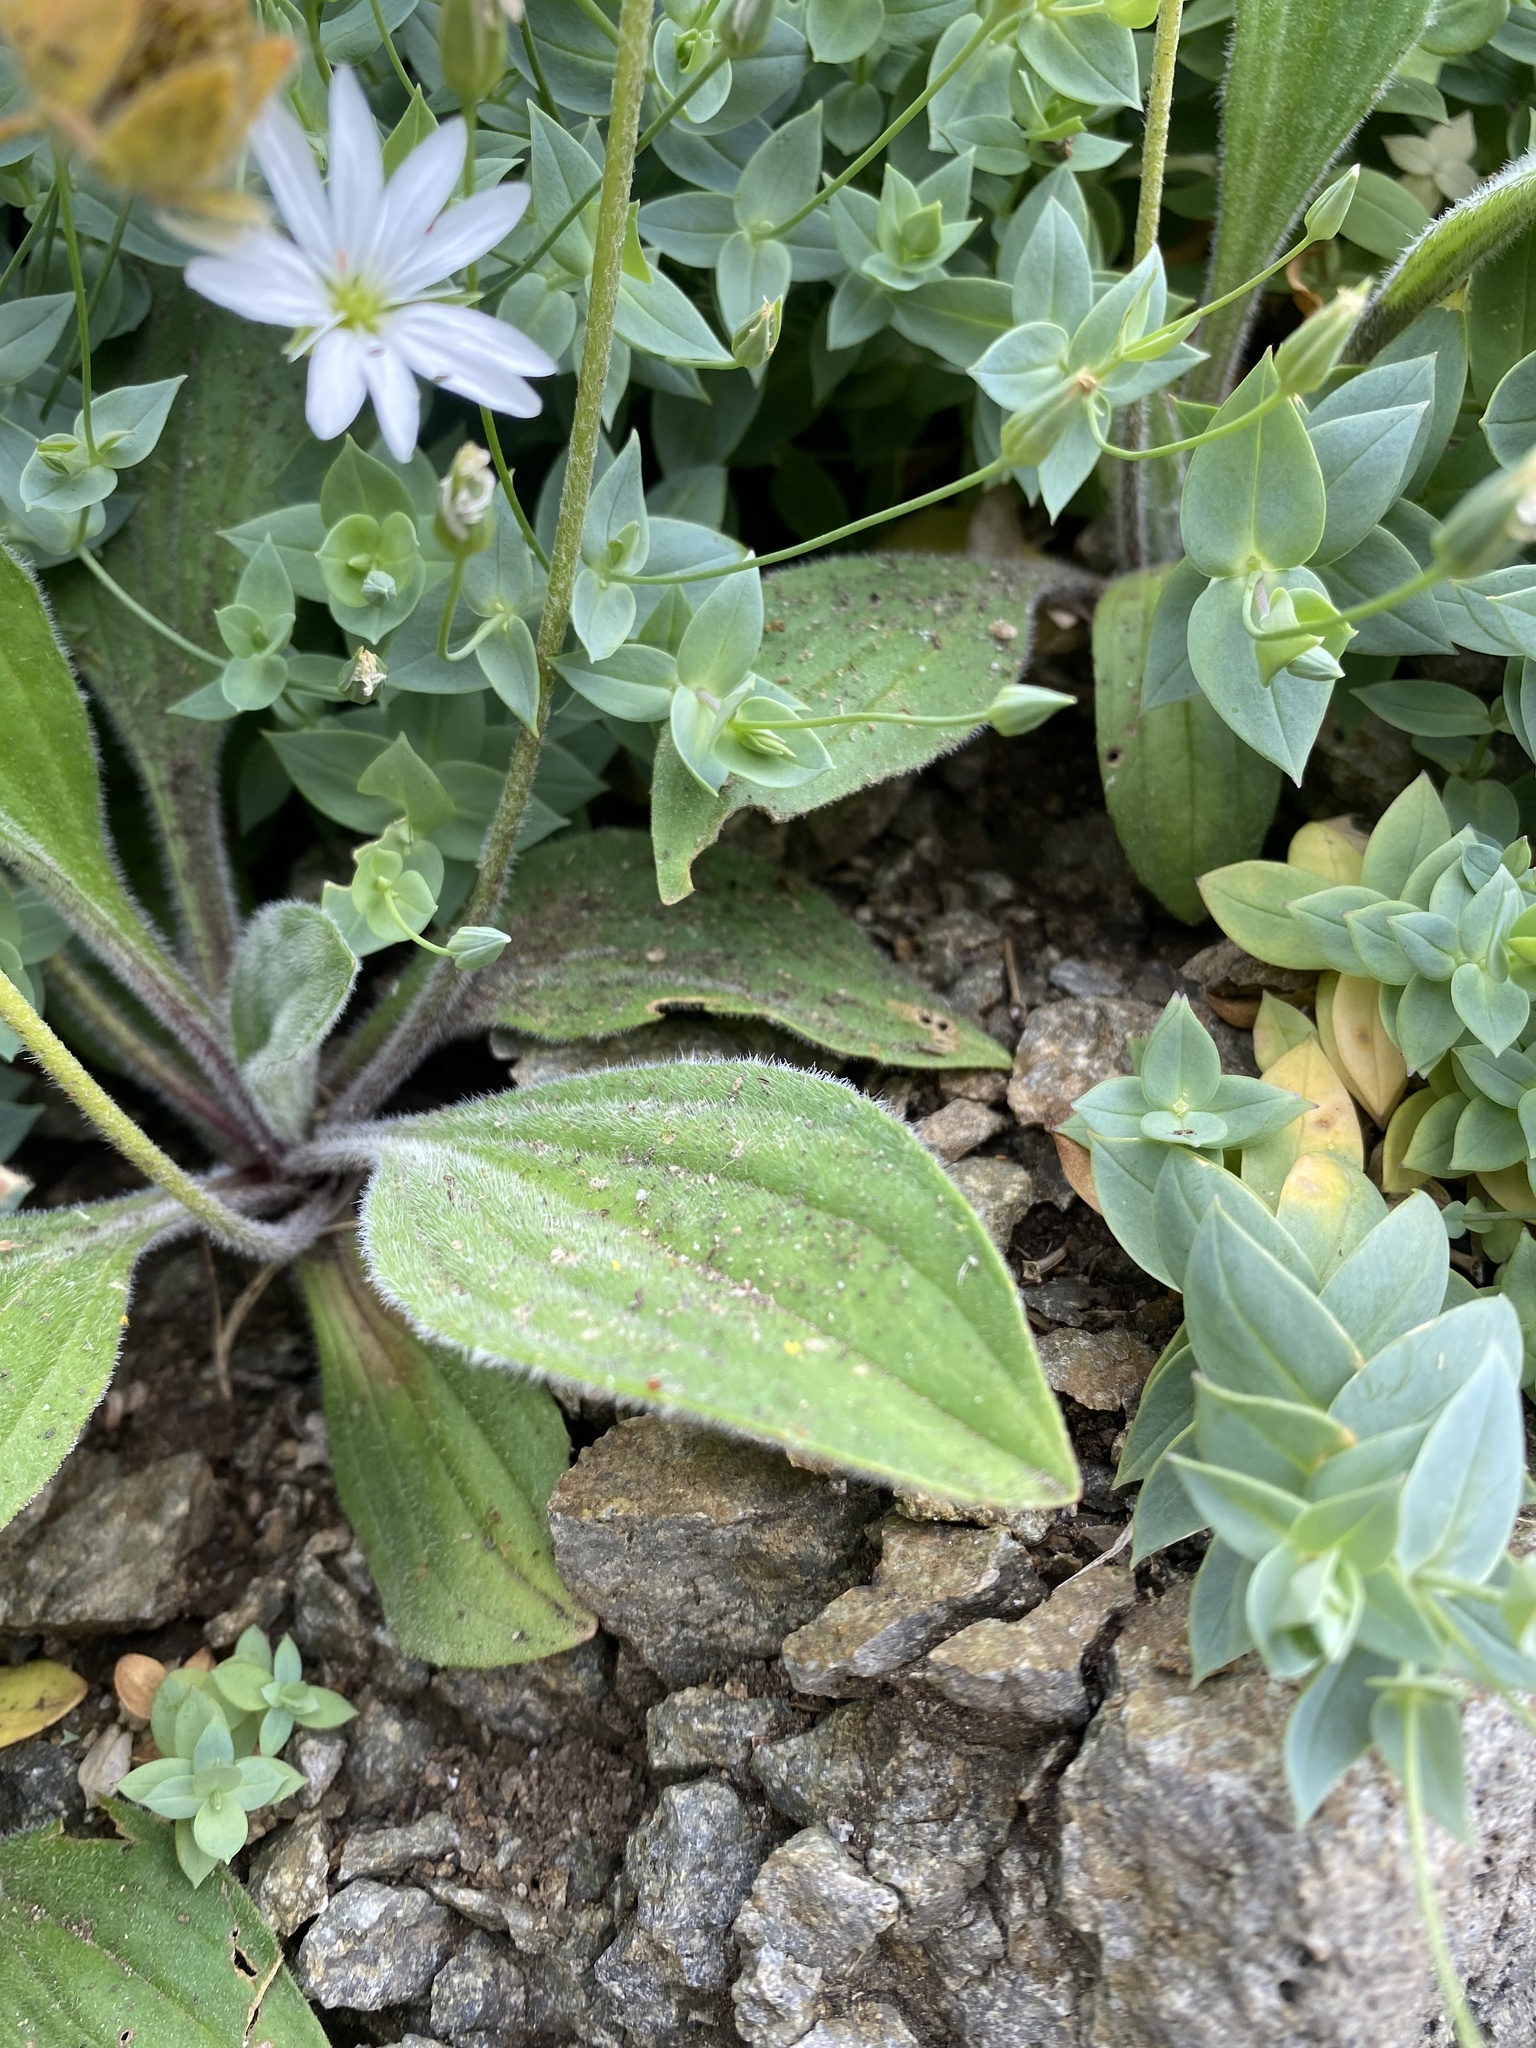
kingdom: Plantae
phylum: Tracheophyta
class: Magnoliopsida
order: Lamiales
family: Plantaginaceae
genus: Plantago
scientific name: Plantago camtschatica
